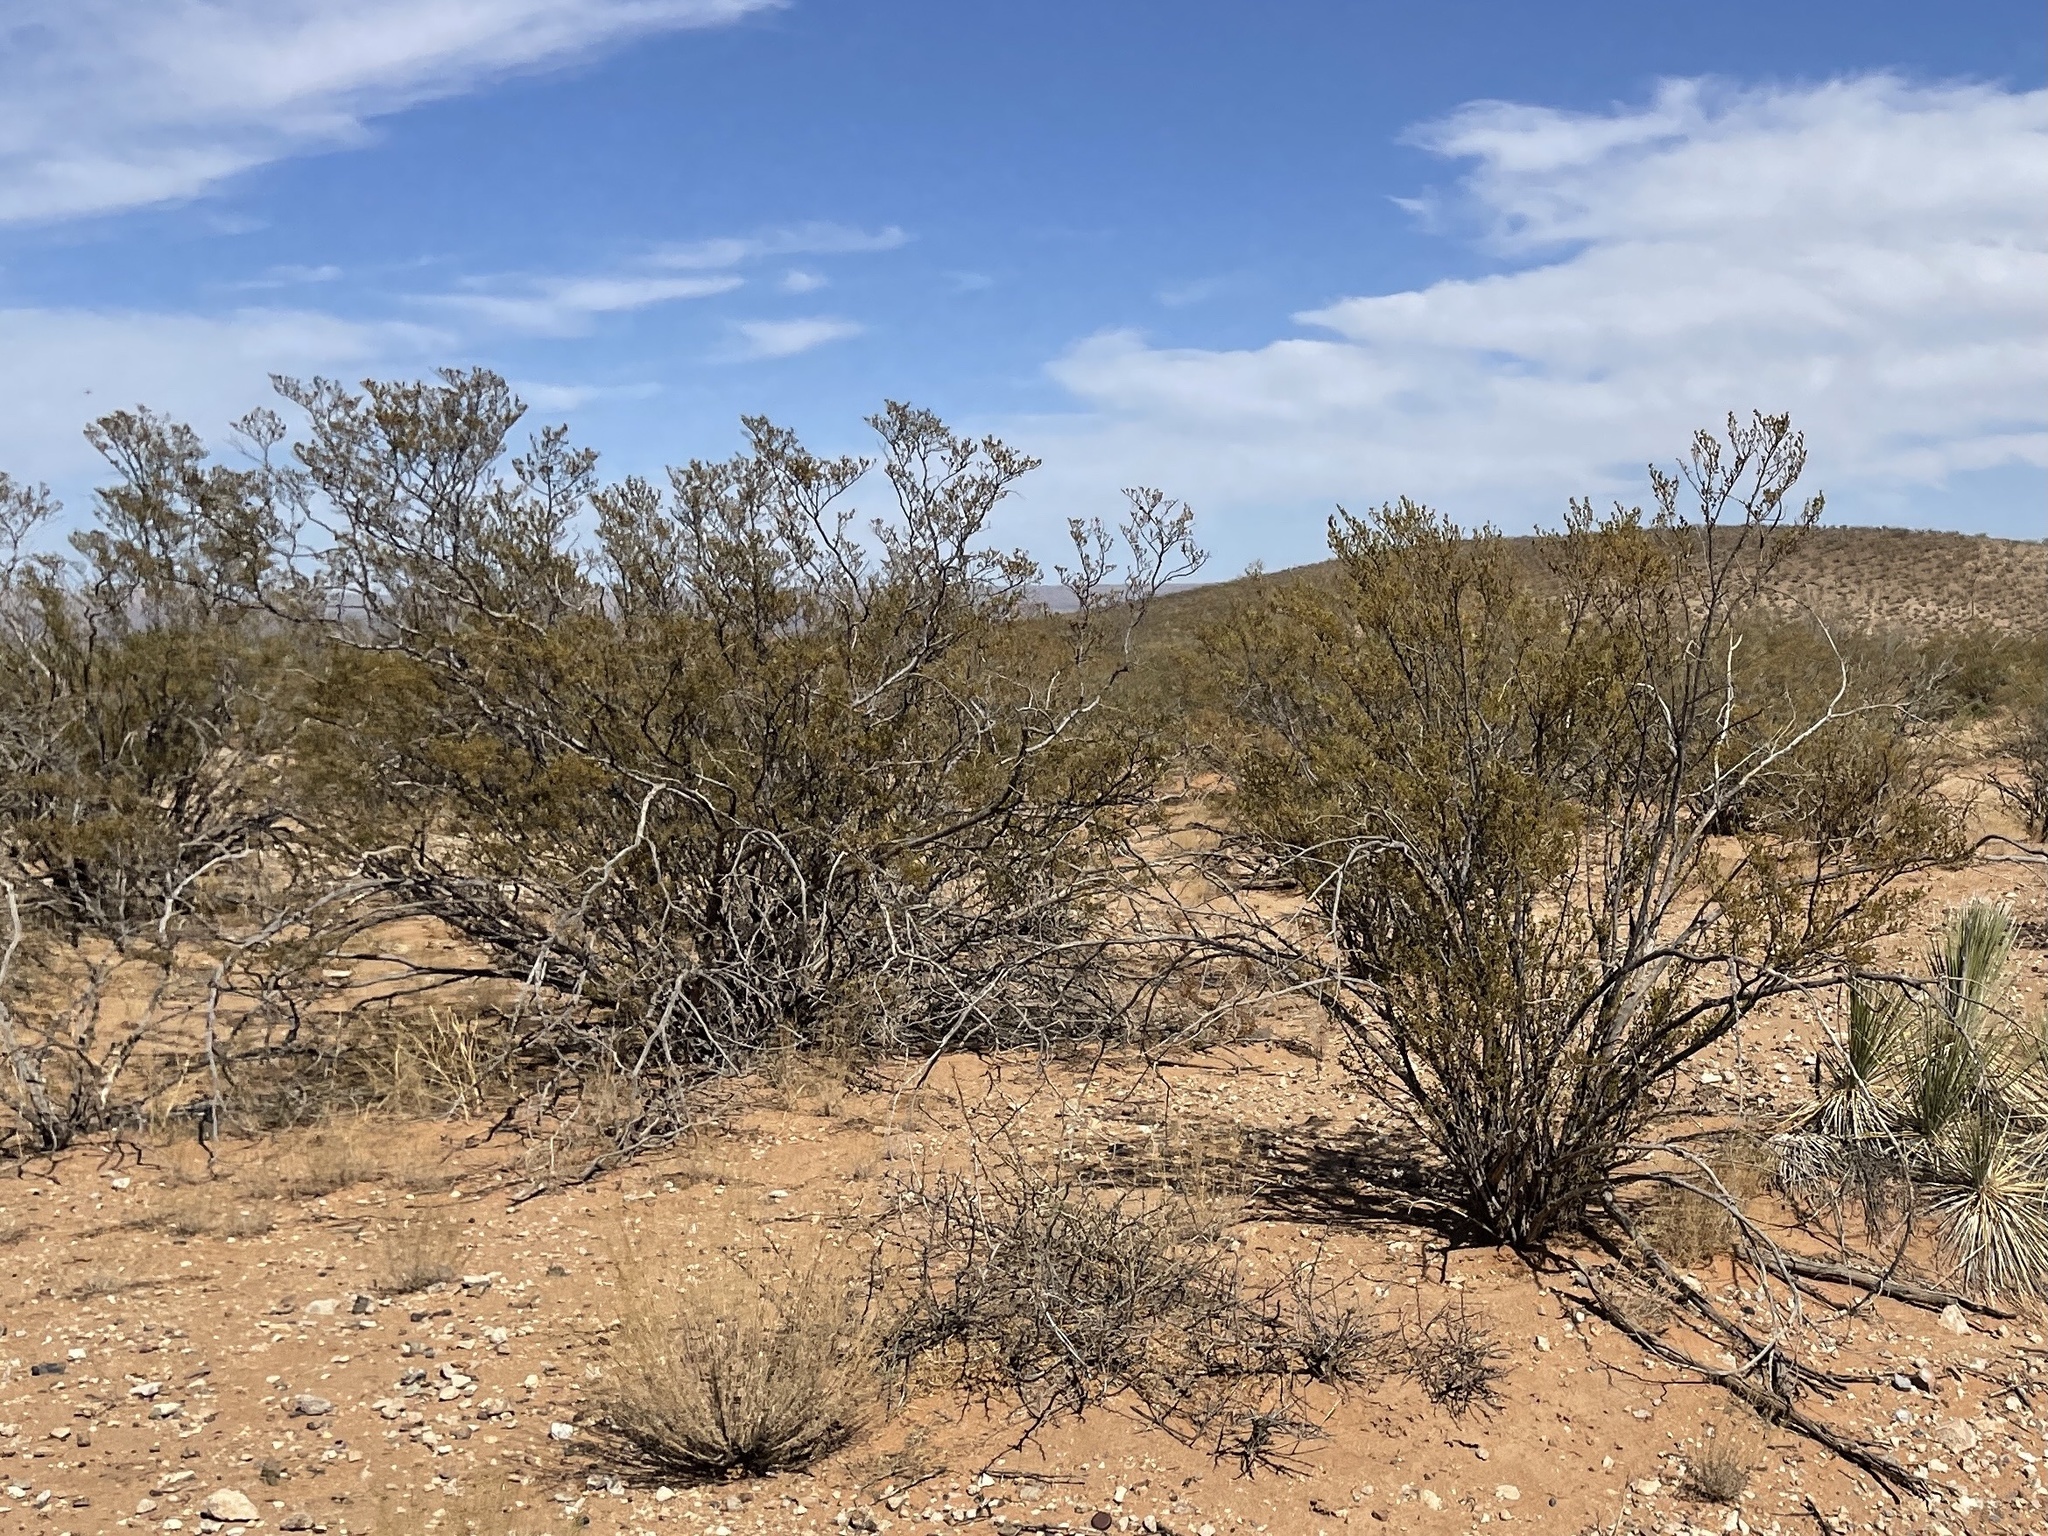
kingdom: Plantae
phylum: Tracheophyta
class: Magnoliopsida
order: Zygophyllales
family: Zygophyllaceae
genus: Larrea
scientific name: Larrea tridentata
